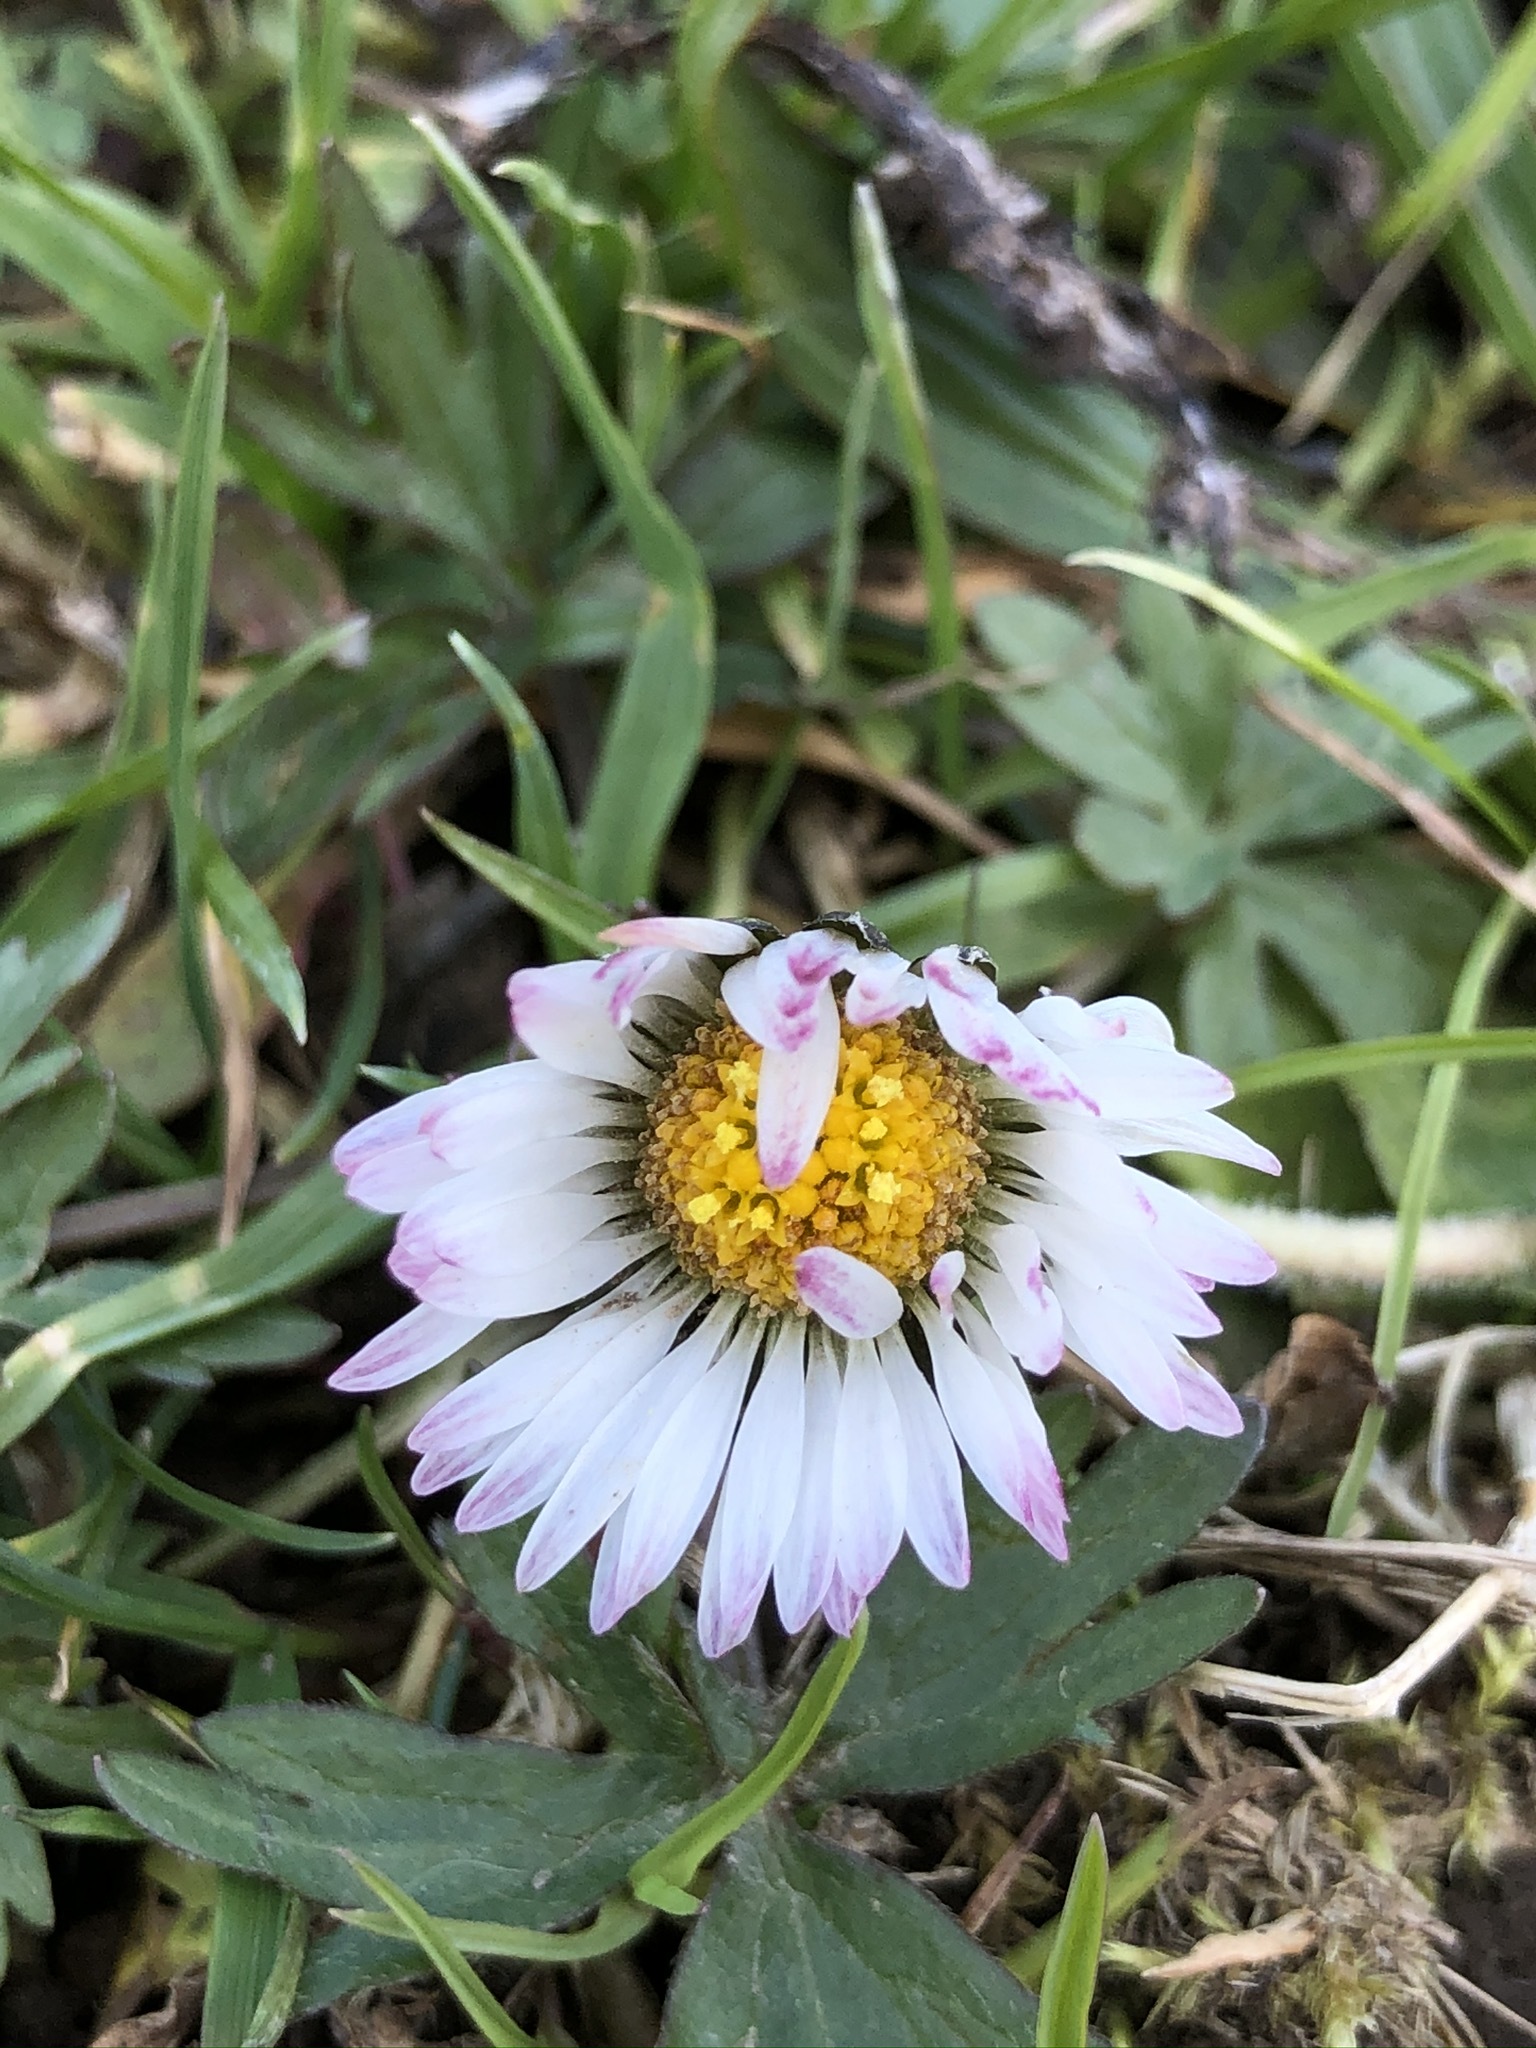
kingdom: Plantae
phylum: Tracheophyta
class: Magnoliopsida
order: Asterales
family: Asteraceae
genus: Bellis
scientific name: Bellis perennis
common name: Lawndaisy
